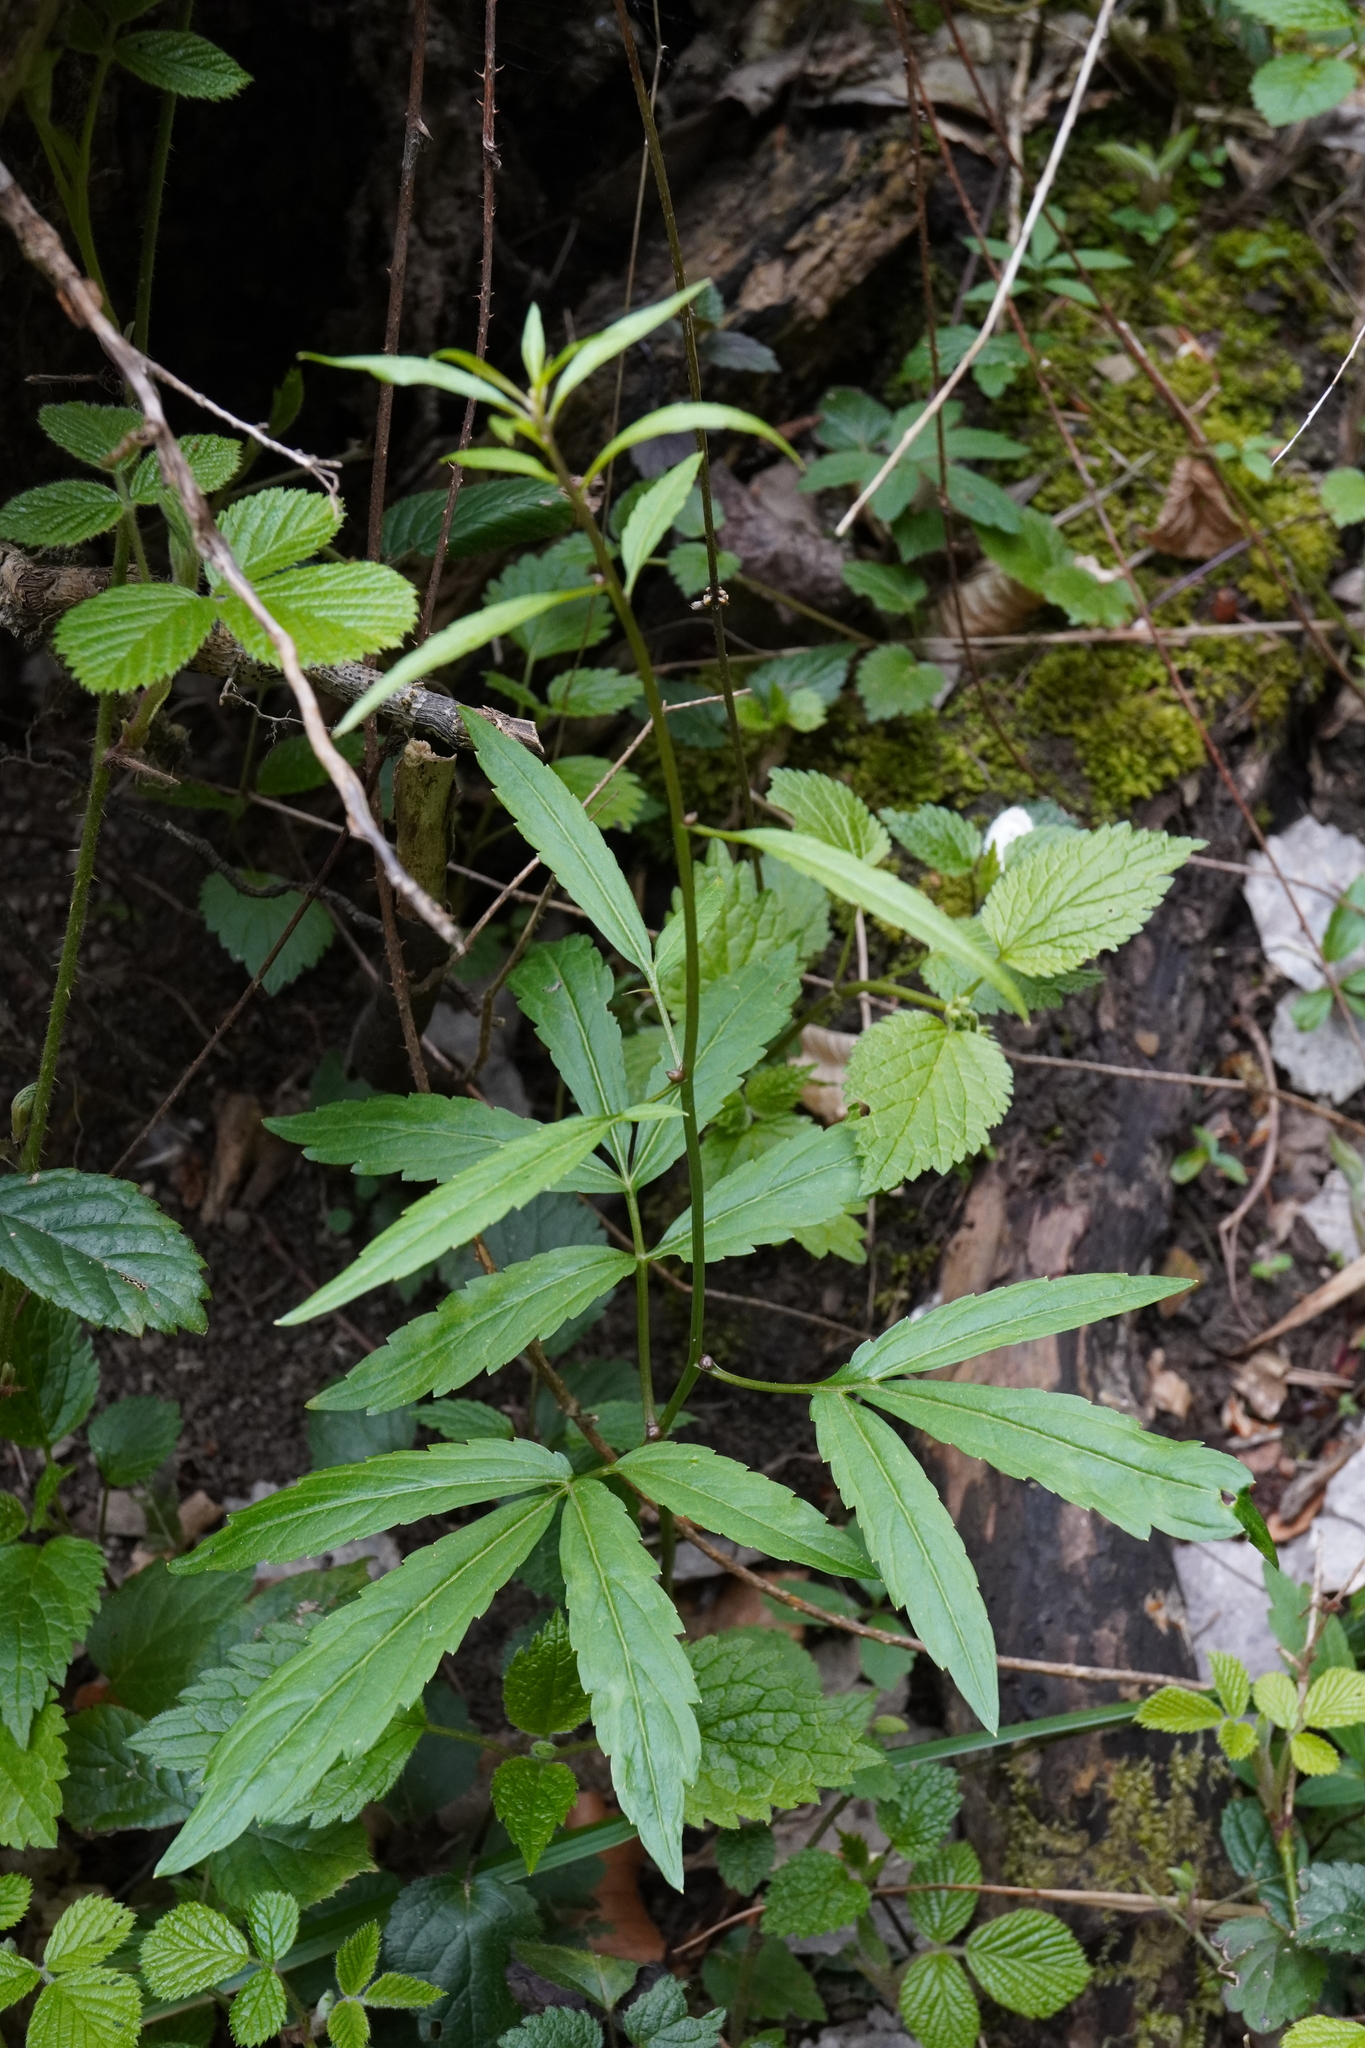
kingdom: Plantae
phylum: Tracheophyta
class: Magnoliopsida
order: Brassicales
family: Brassicaceae
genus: Cardamine
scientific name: Cardamine bulbifera
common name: Coralroot bittercress
